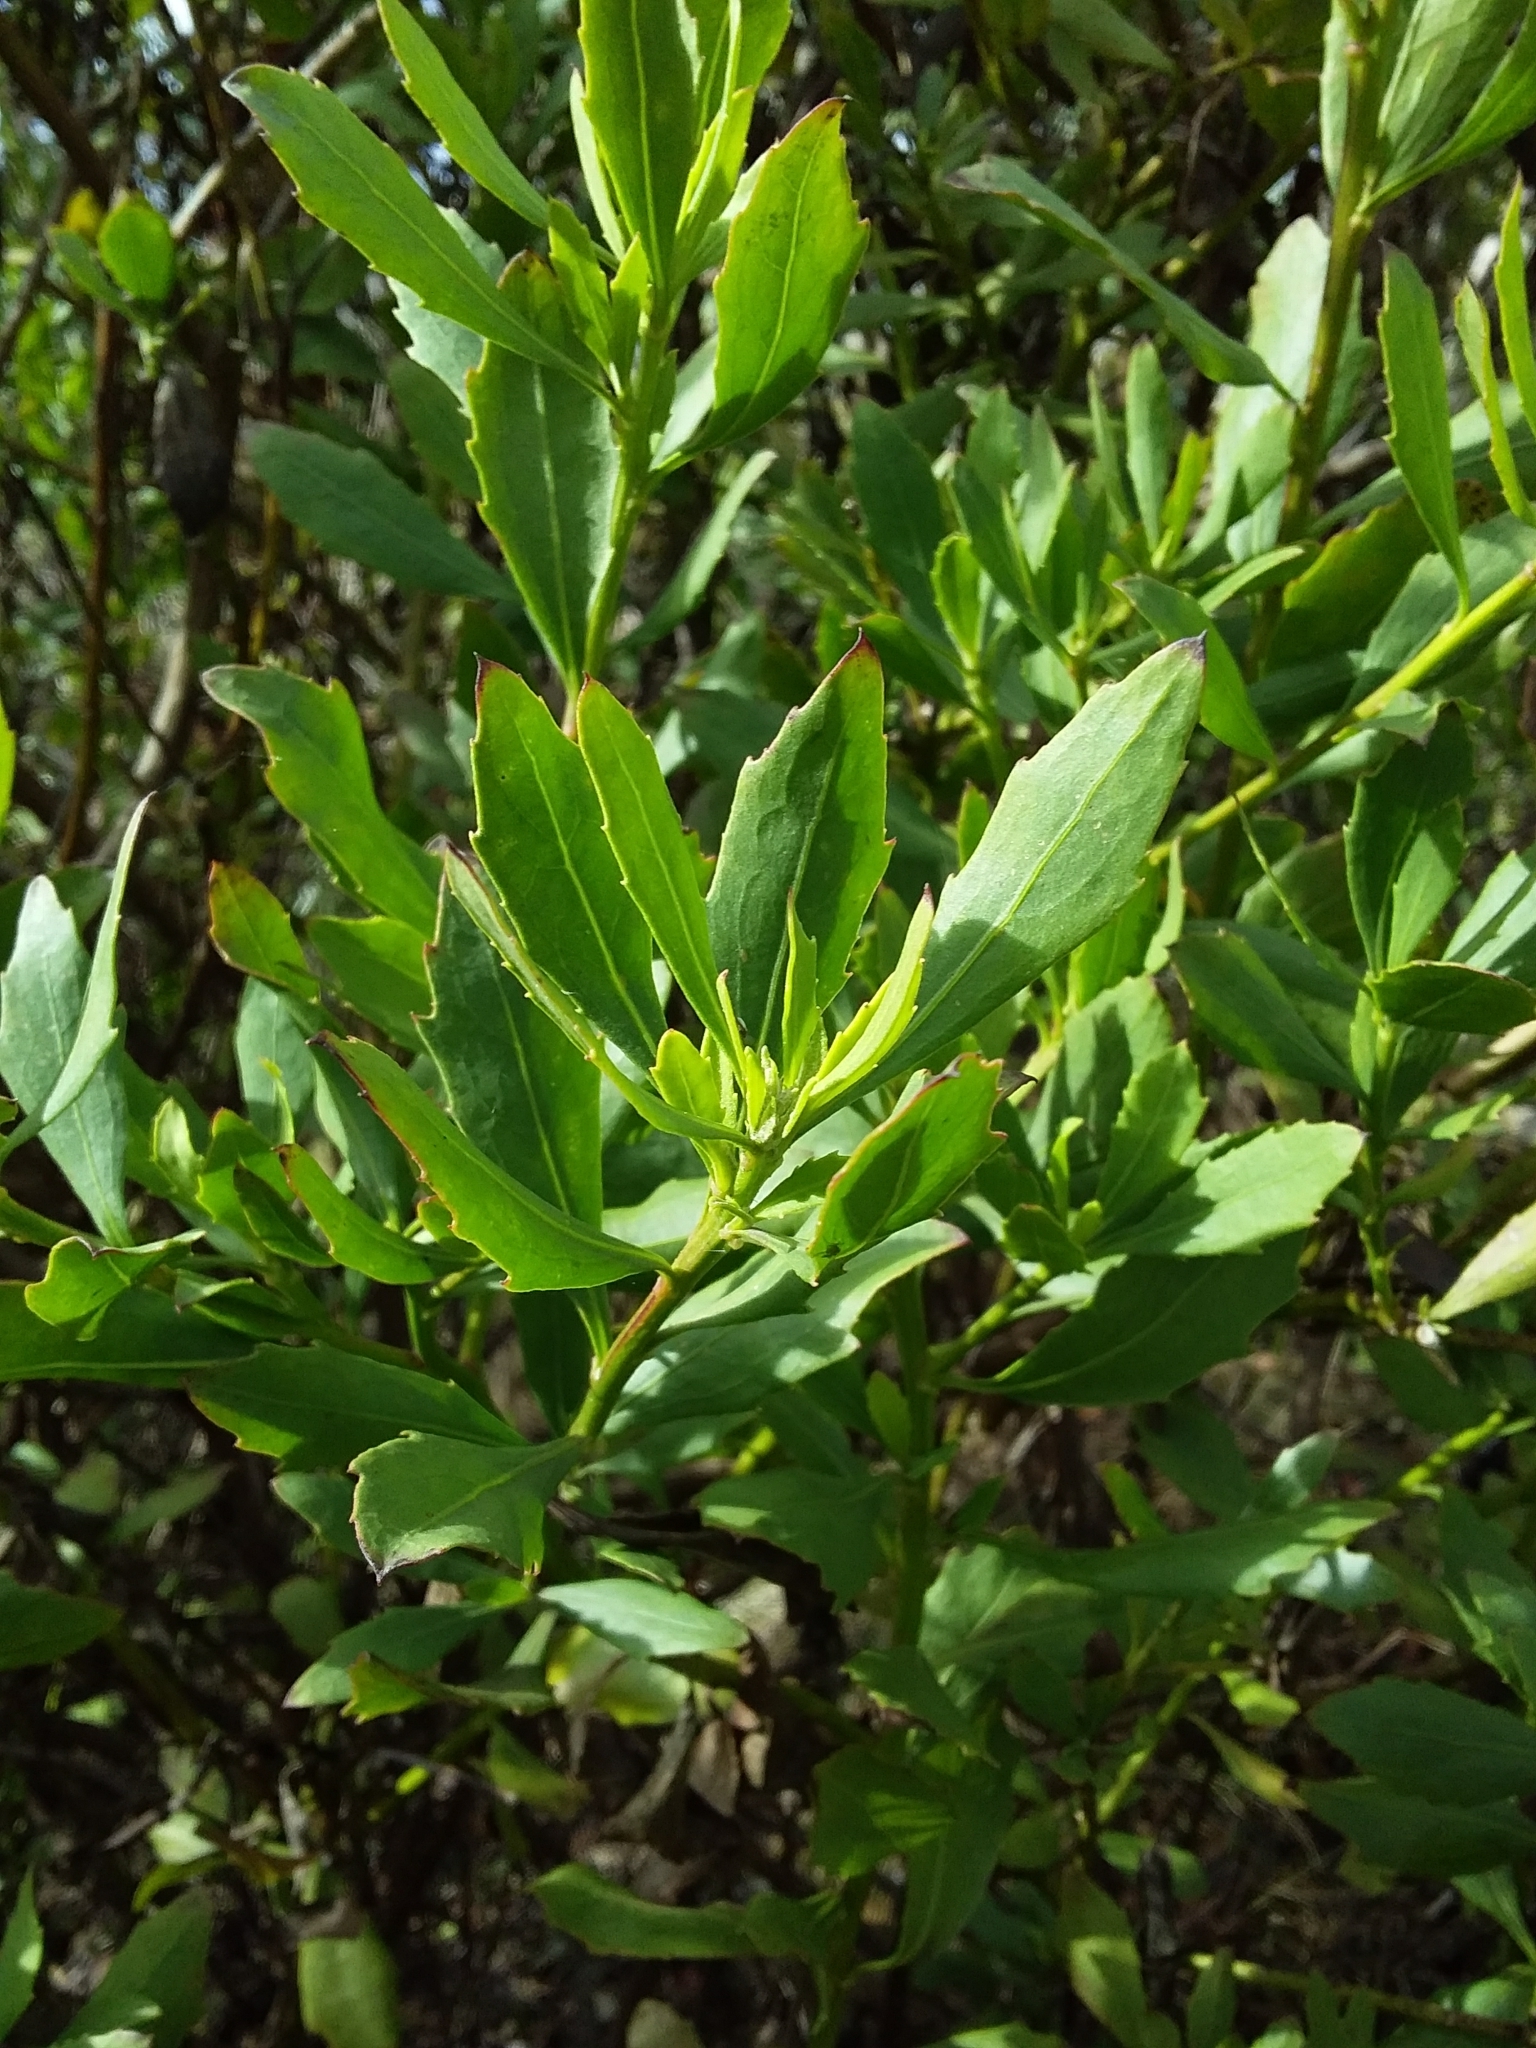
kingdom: Plantae
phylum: Tracheophyta
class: Magnoliopsida
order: Asterales
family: Asteraceae
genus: Osteospermum
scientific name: Osteospermum moniliferum
